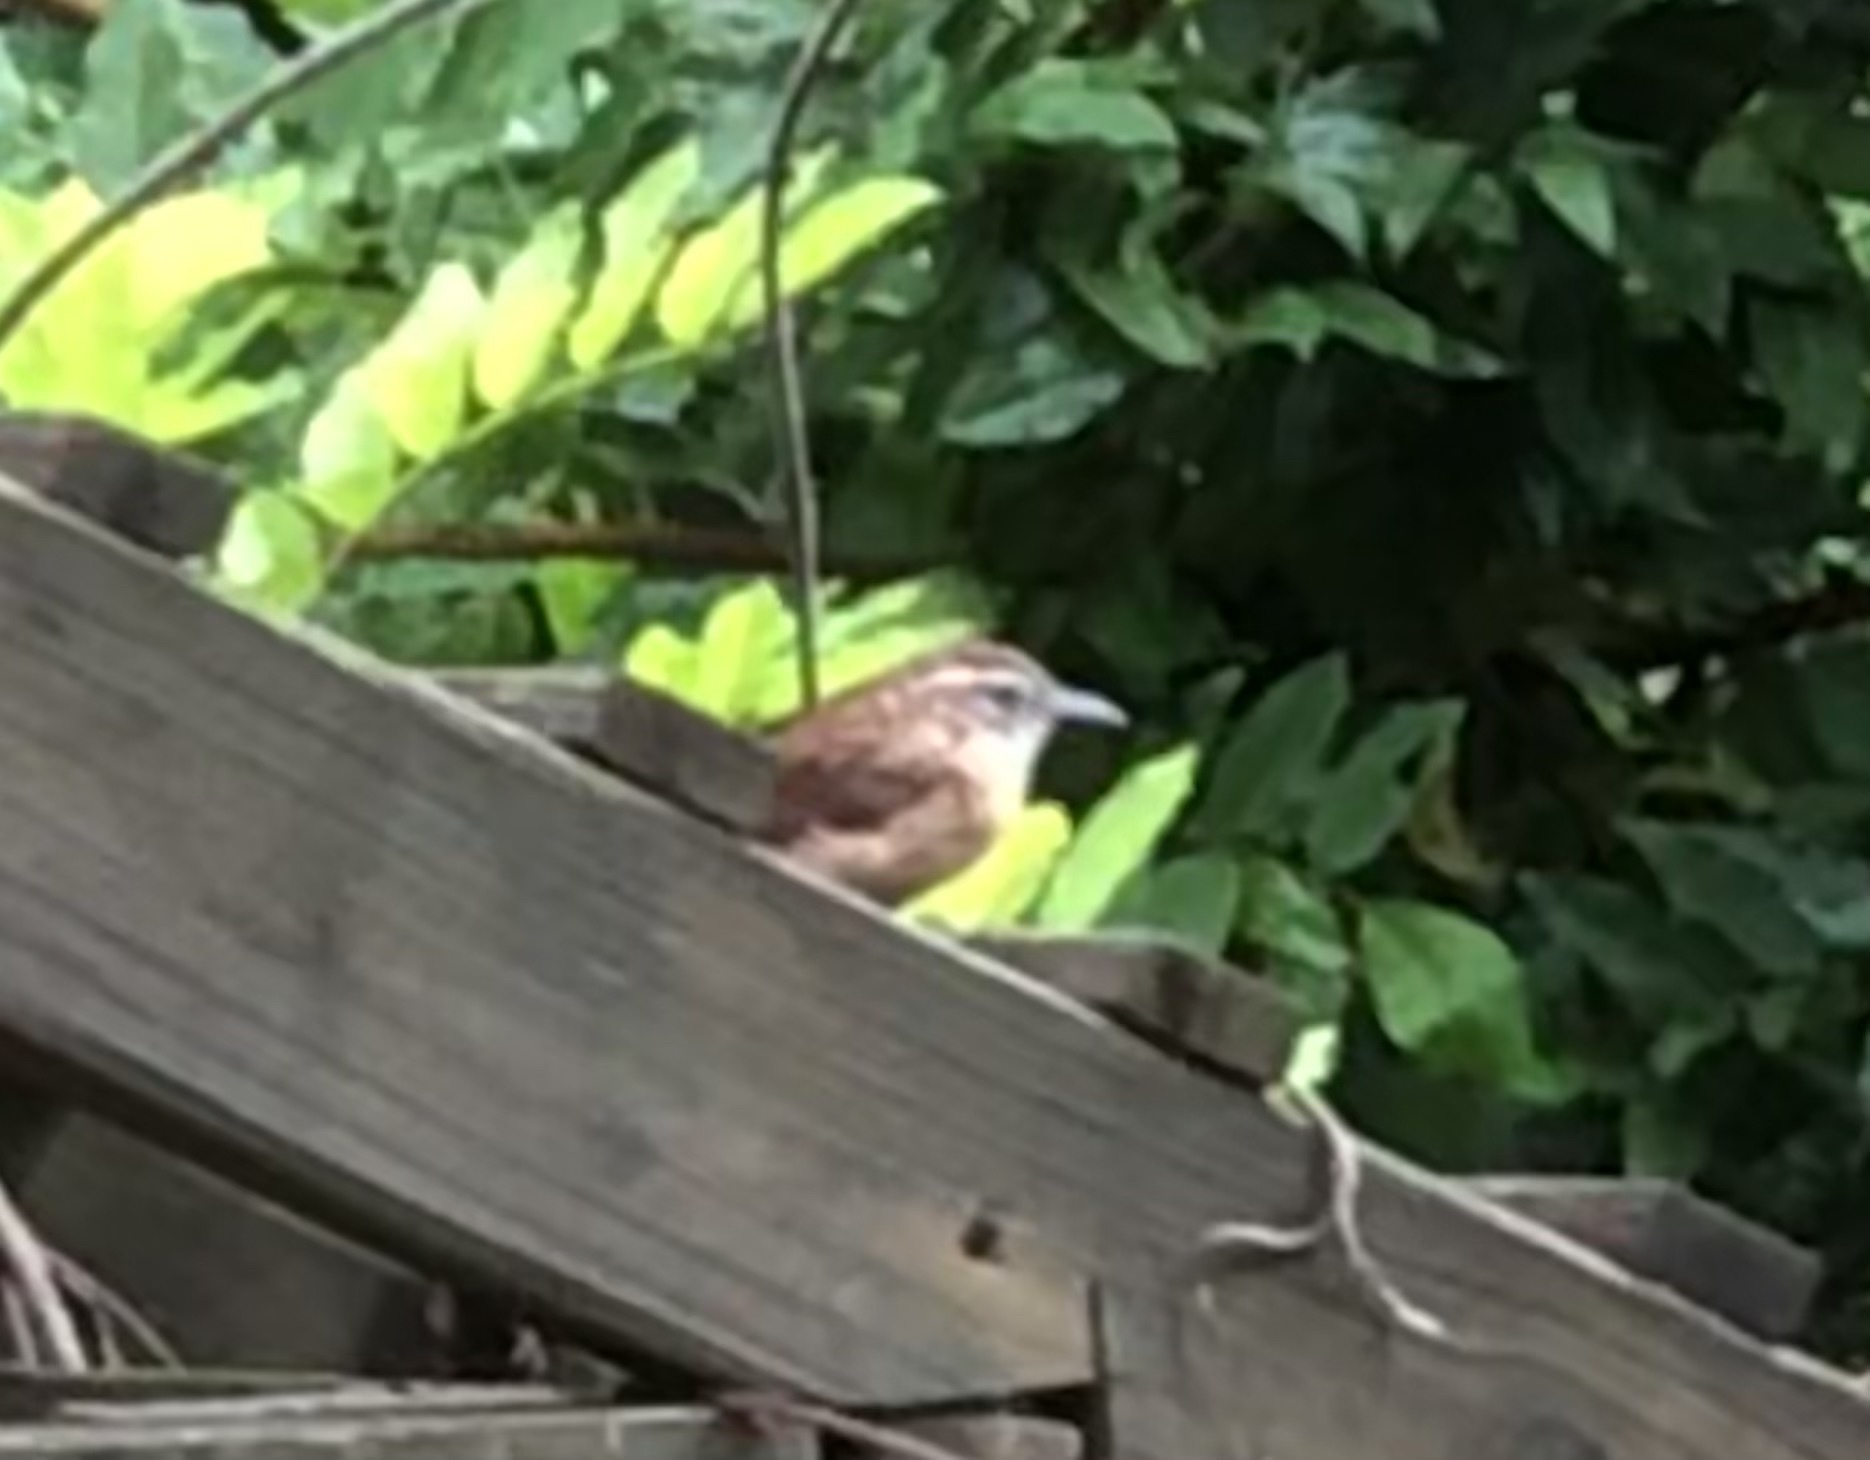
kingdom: Animalia
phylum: Chordata
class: Aves
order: Passeriformes
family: Troglodytidae
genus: Thryothorus
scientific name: Thryothorus ludovicianus
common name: Carolina wren
